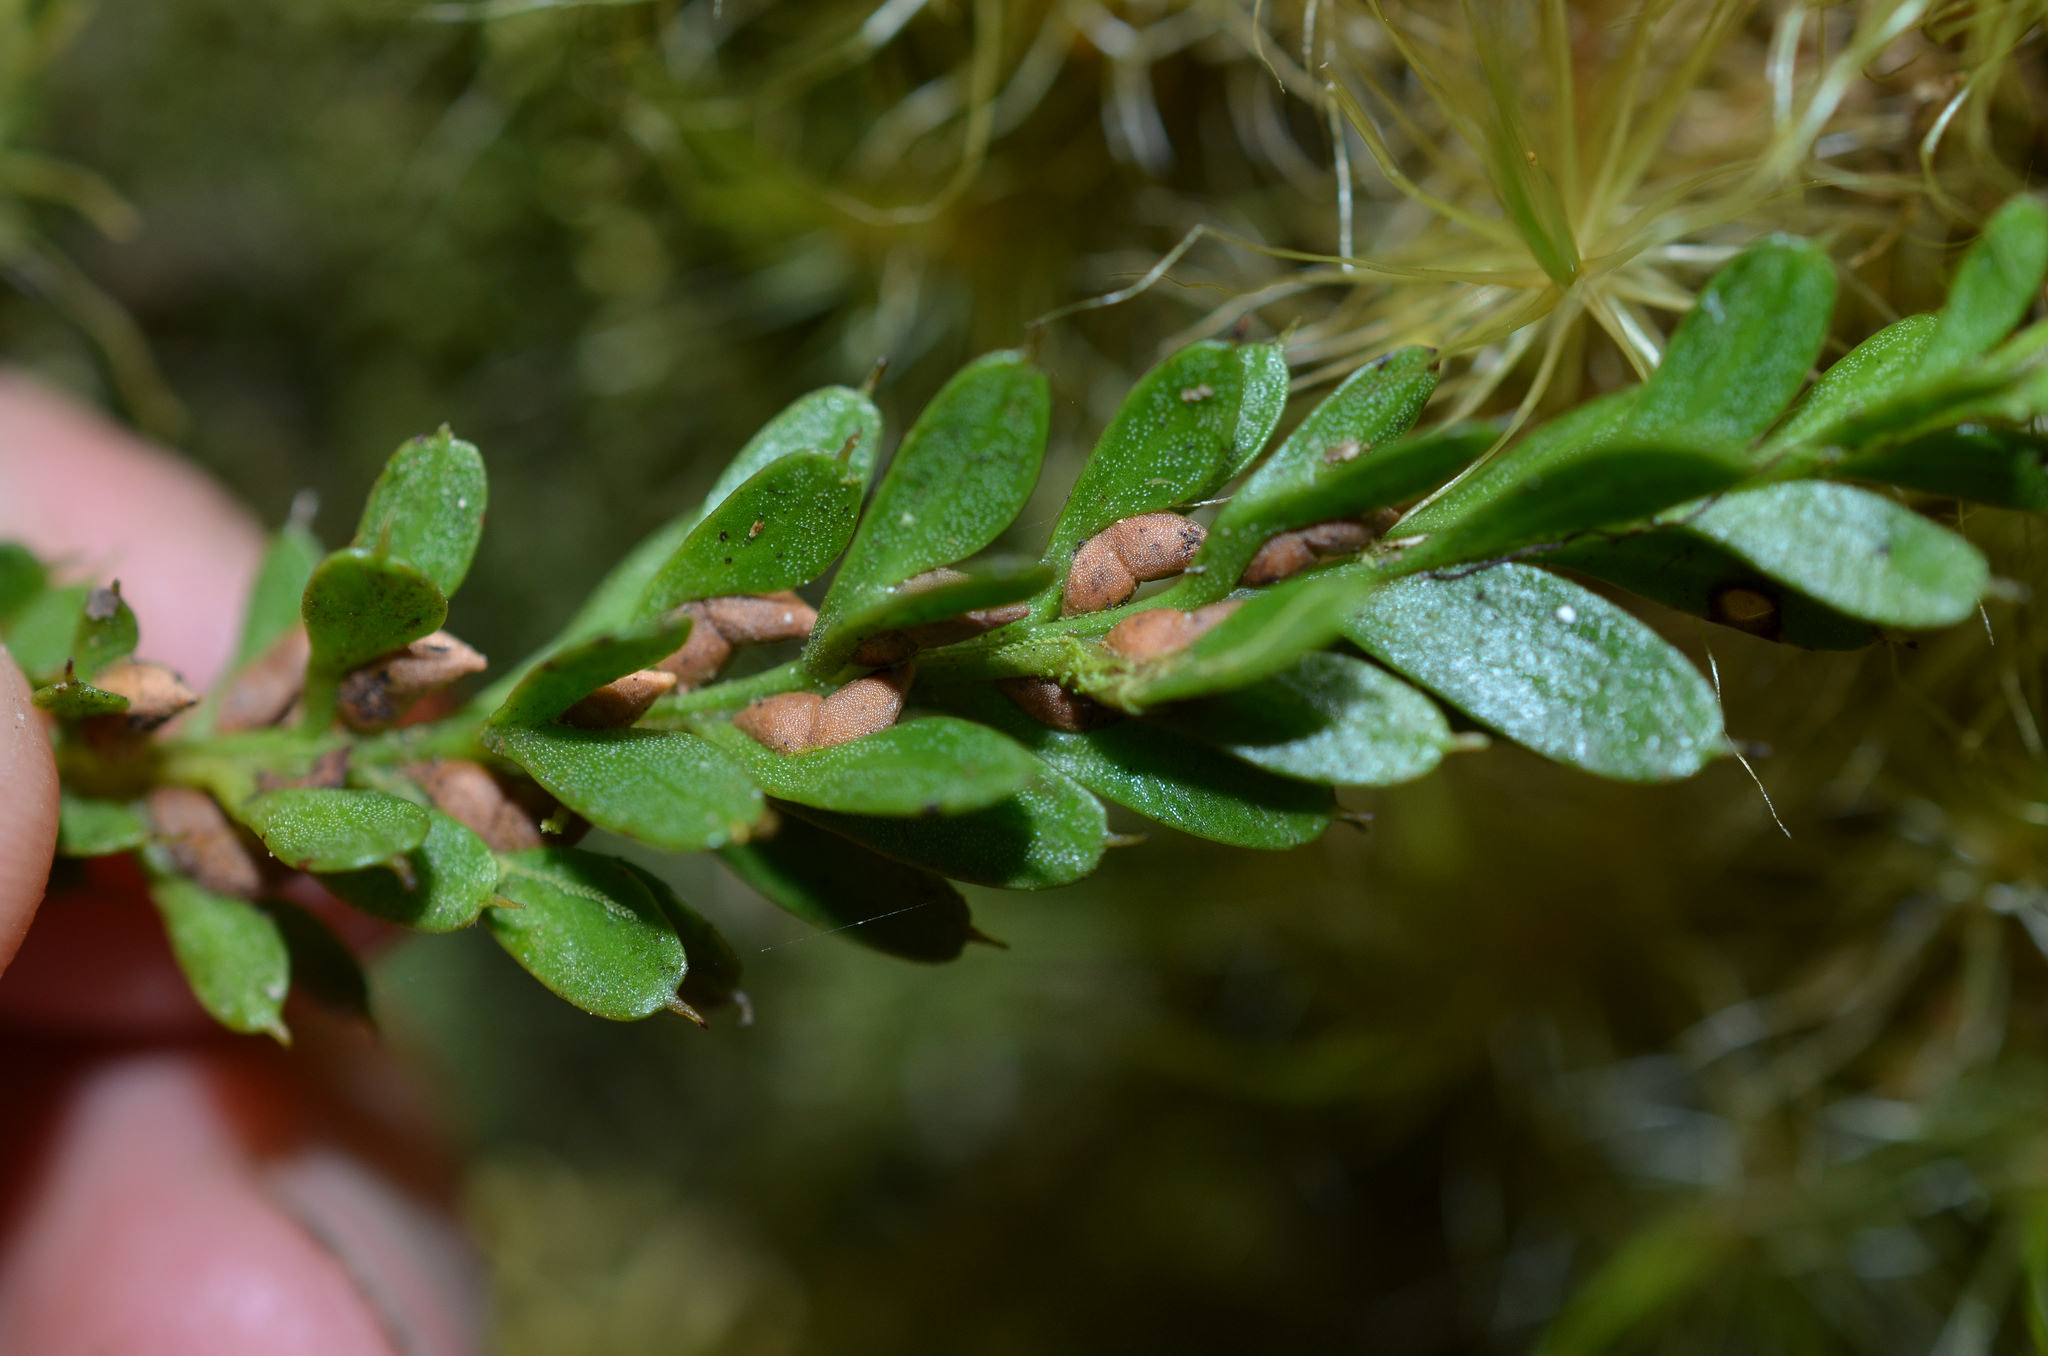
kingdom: Plantae
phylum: Tracheophyta
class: Polypodiopsida
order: Psilotales
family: Psilotaceae
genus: Tmesipteris
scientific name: Tmesipteris tannensis
